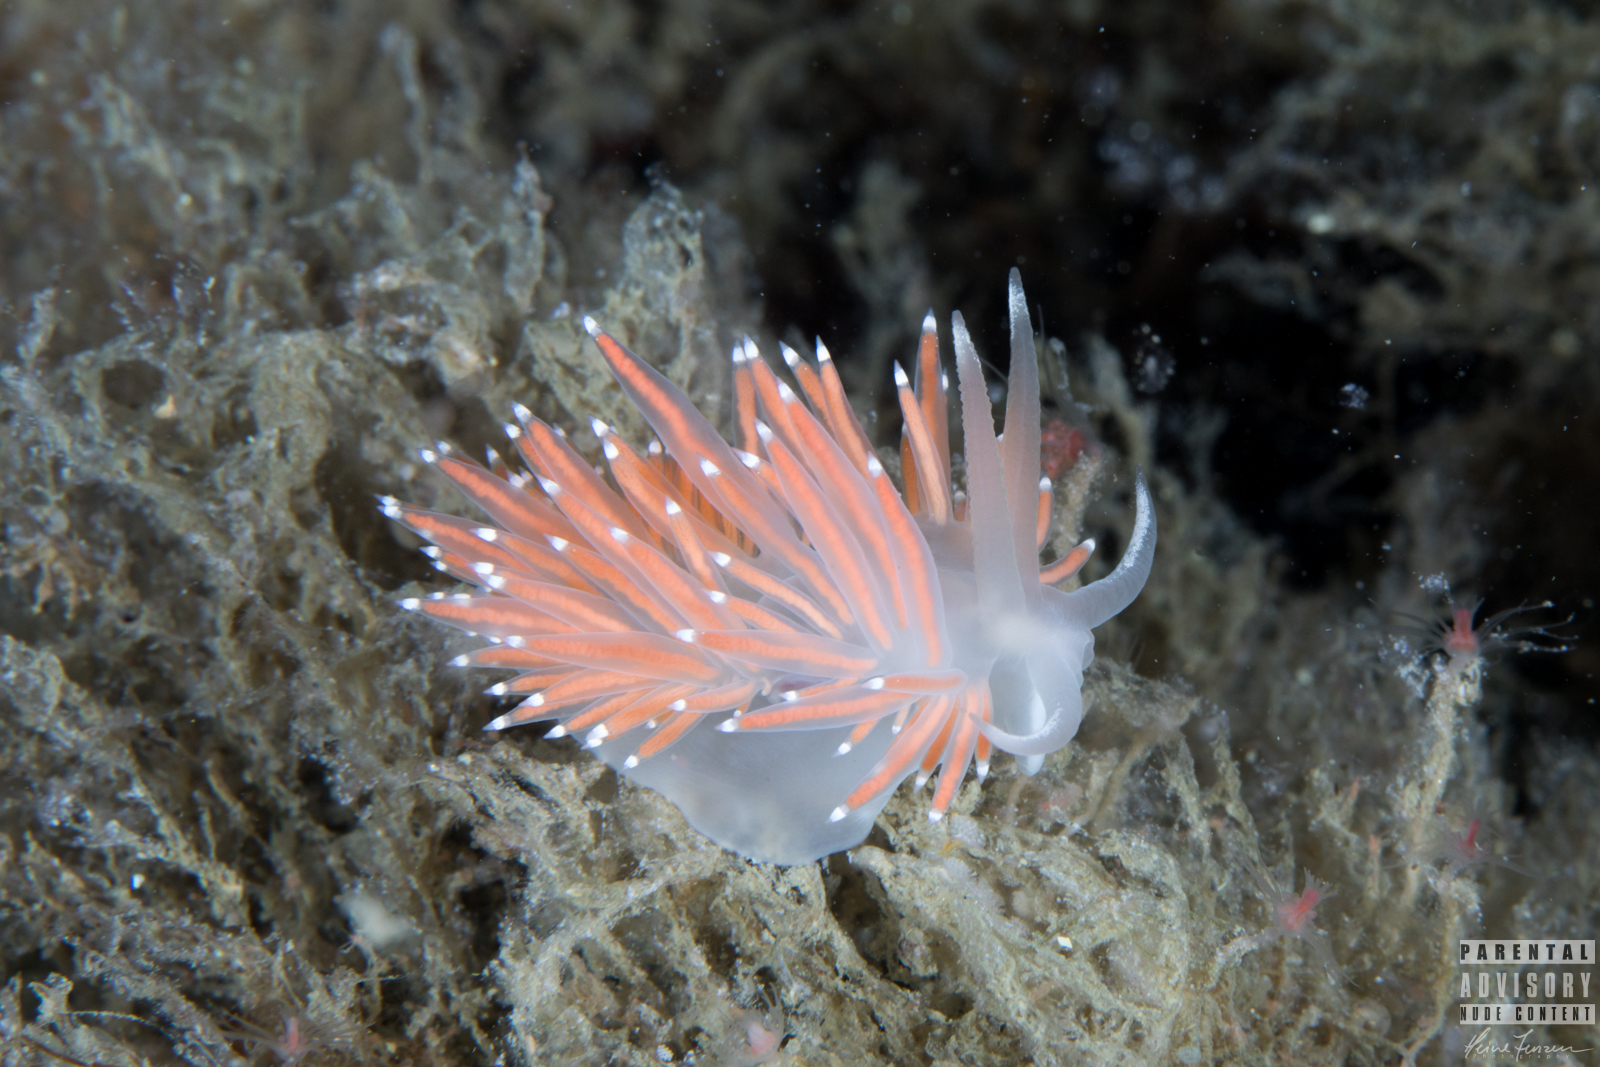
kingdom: Animalia
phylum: Mollusca
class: Gastropoda
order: Nudibranchia
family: Coryphellidae
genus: Coryphella
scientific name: Coryphella browni
